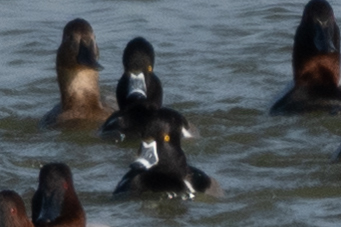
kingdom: Animalia
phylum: Chordata
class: Aves
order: Anseriformes
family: Anatidae
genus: Aythya
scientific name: Aythya collaris
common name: Ring-necked duck
